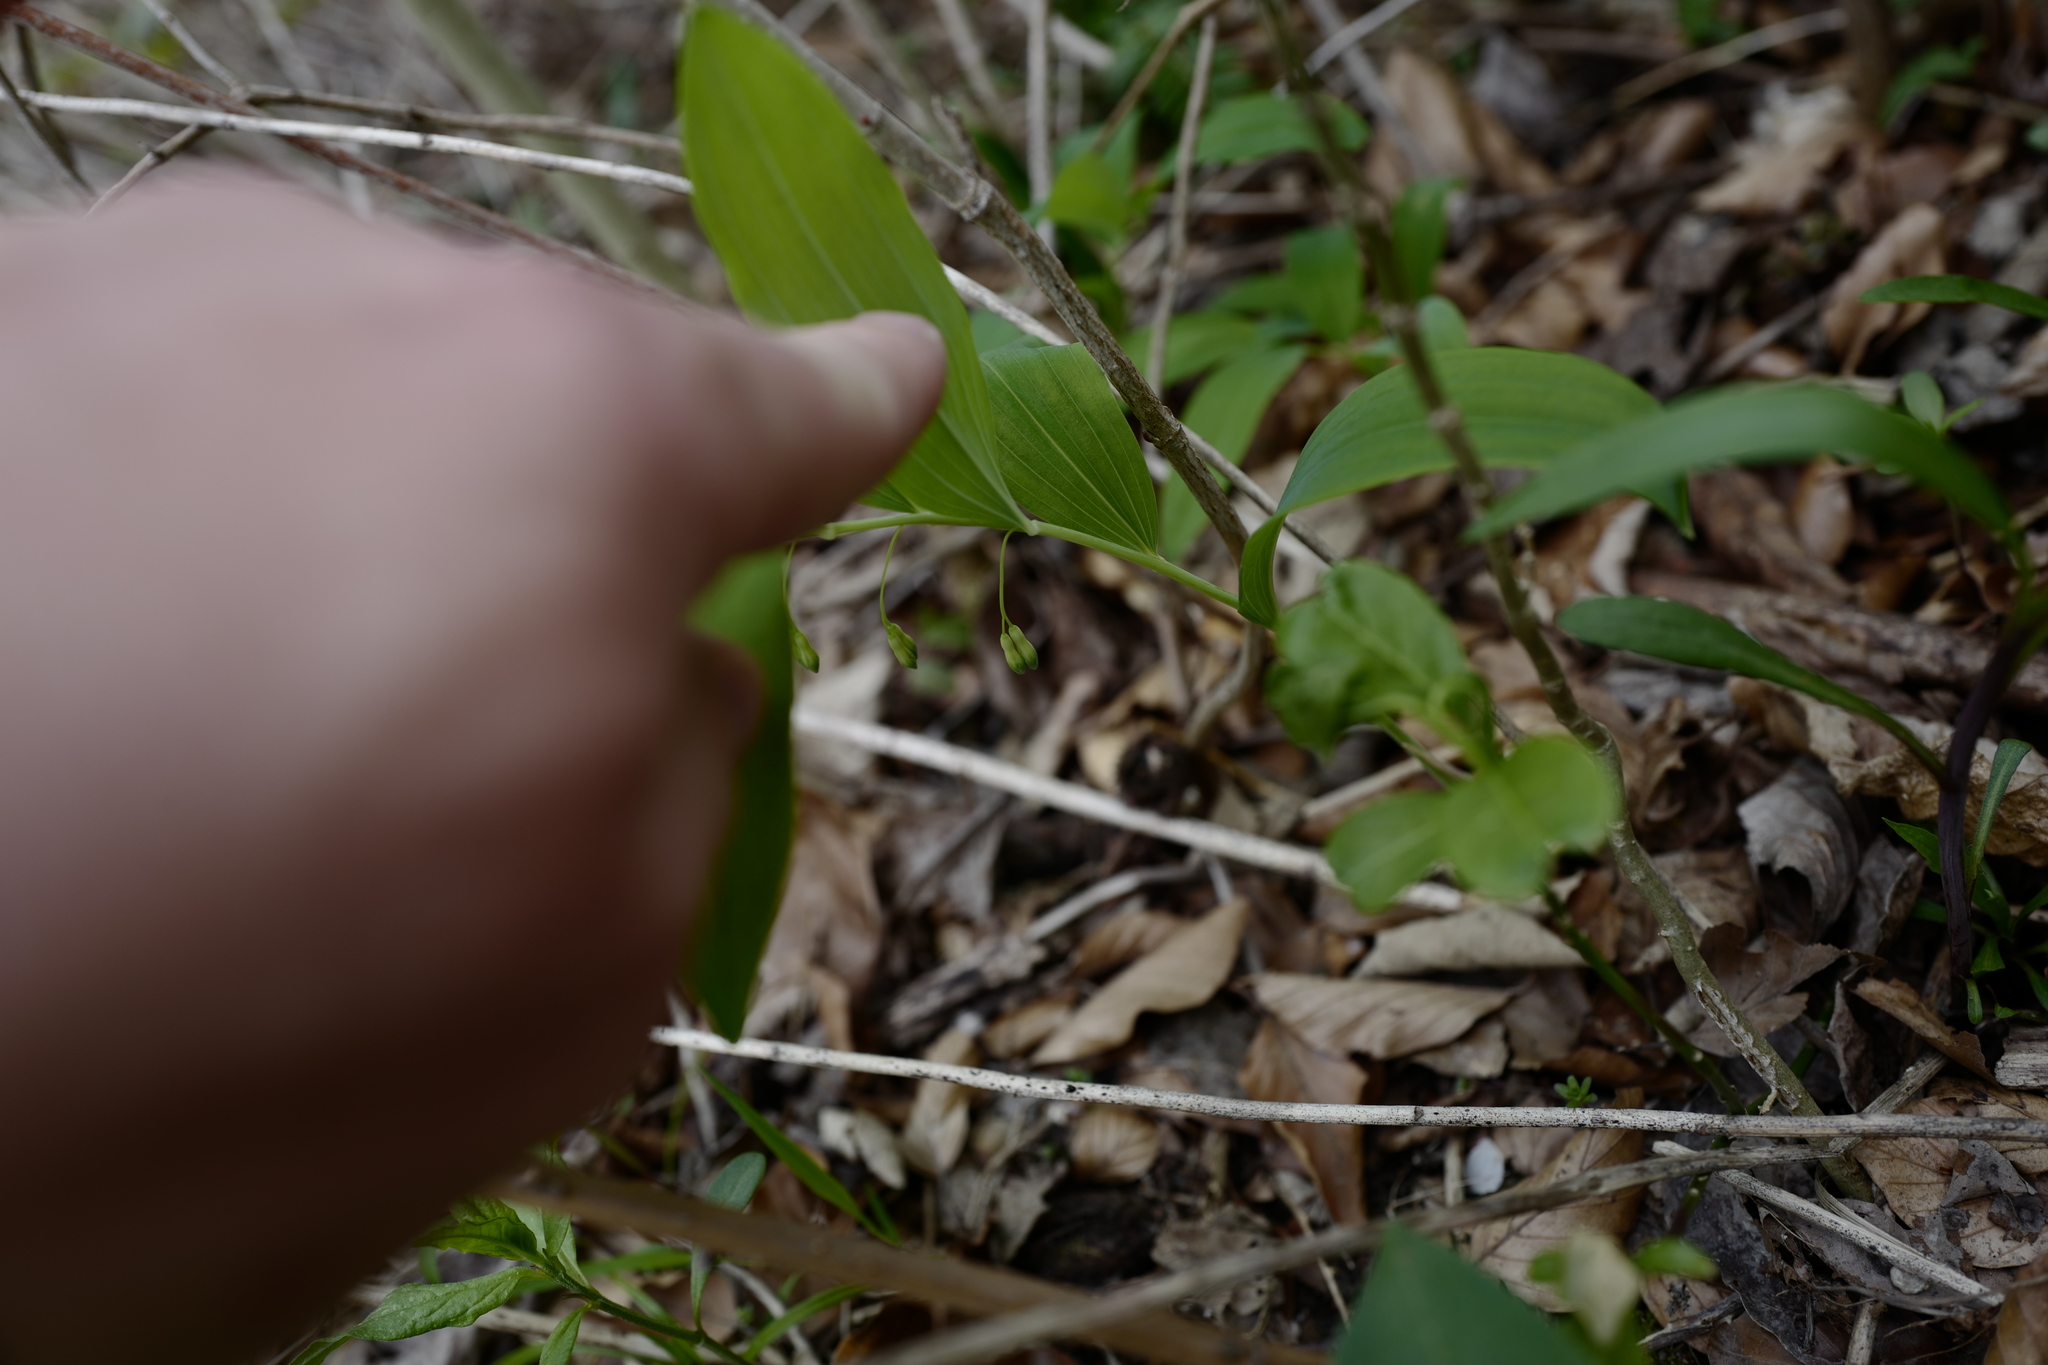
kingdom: Plantae
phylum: Tracheophyta
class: Liliopsida
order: Asparagales
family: Asparagaceae
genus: Polygonatum
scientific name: Polygonatum multiflorum
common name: Solomon's-seal
